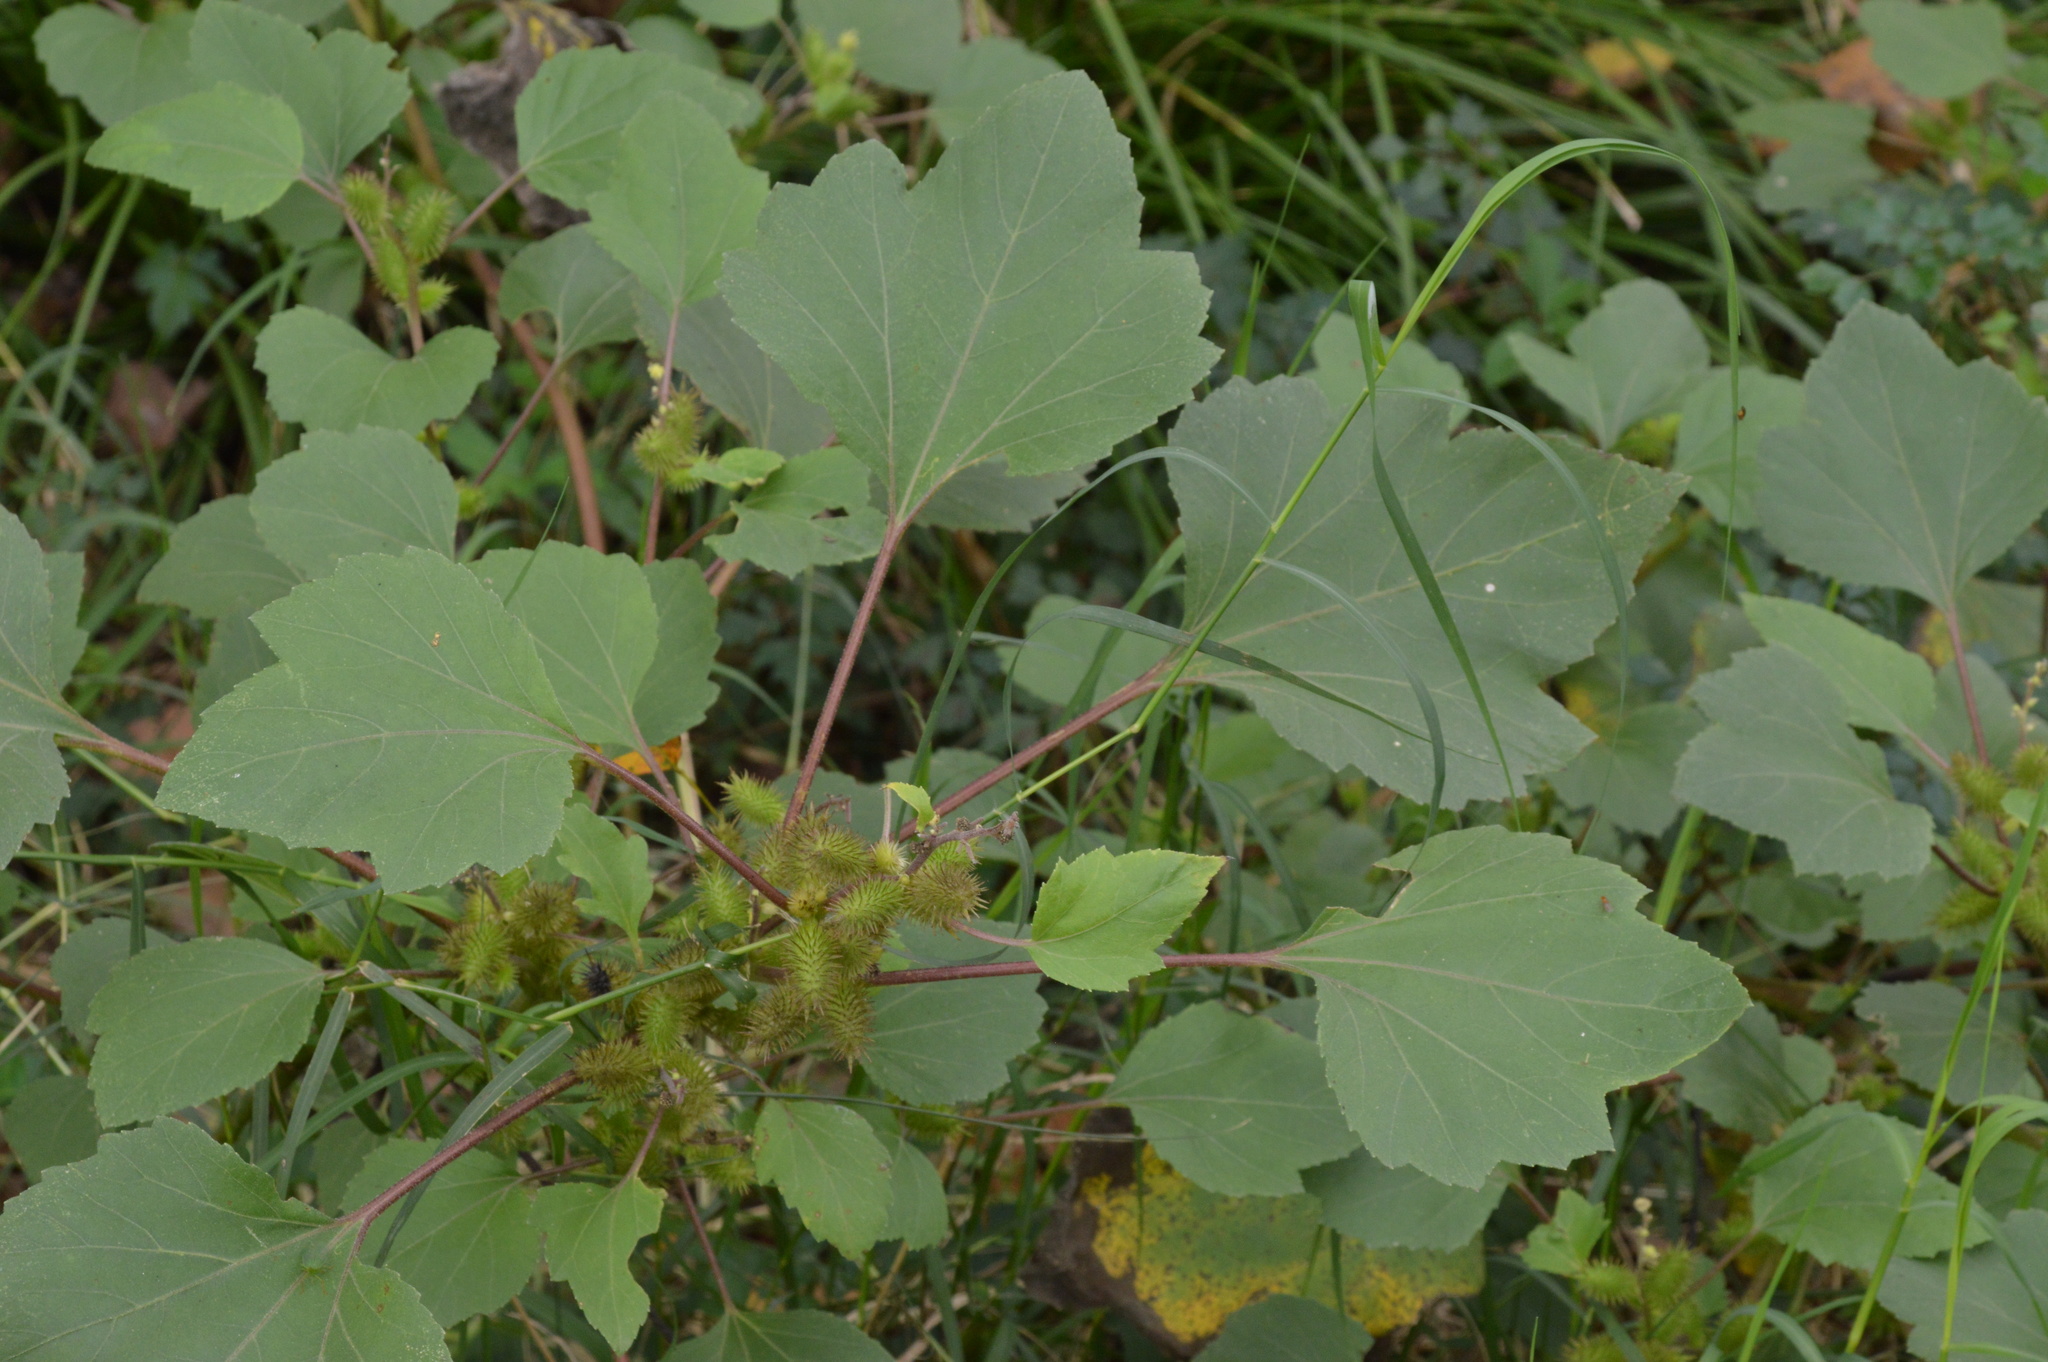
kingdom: Plantae
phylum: Tracheophyta
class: Magnoliopsida
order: Asterales
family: Asteraceae
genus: Xanthium
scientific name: Xanthium strumarium
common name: Rough cocklebur
